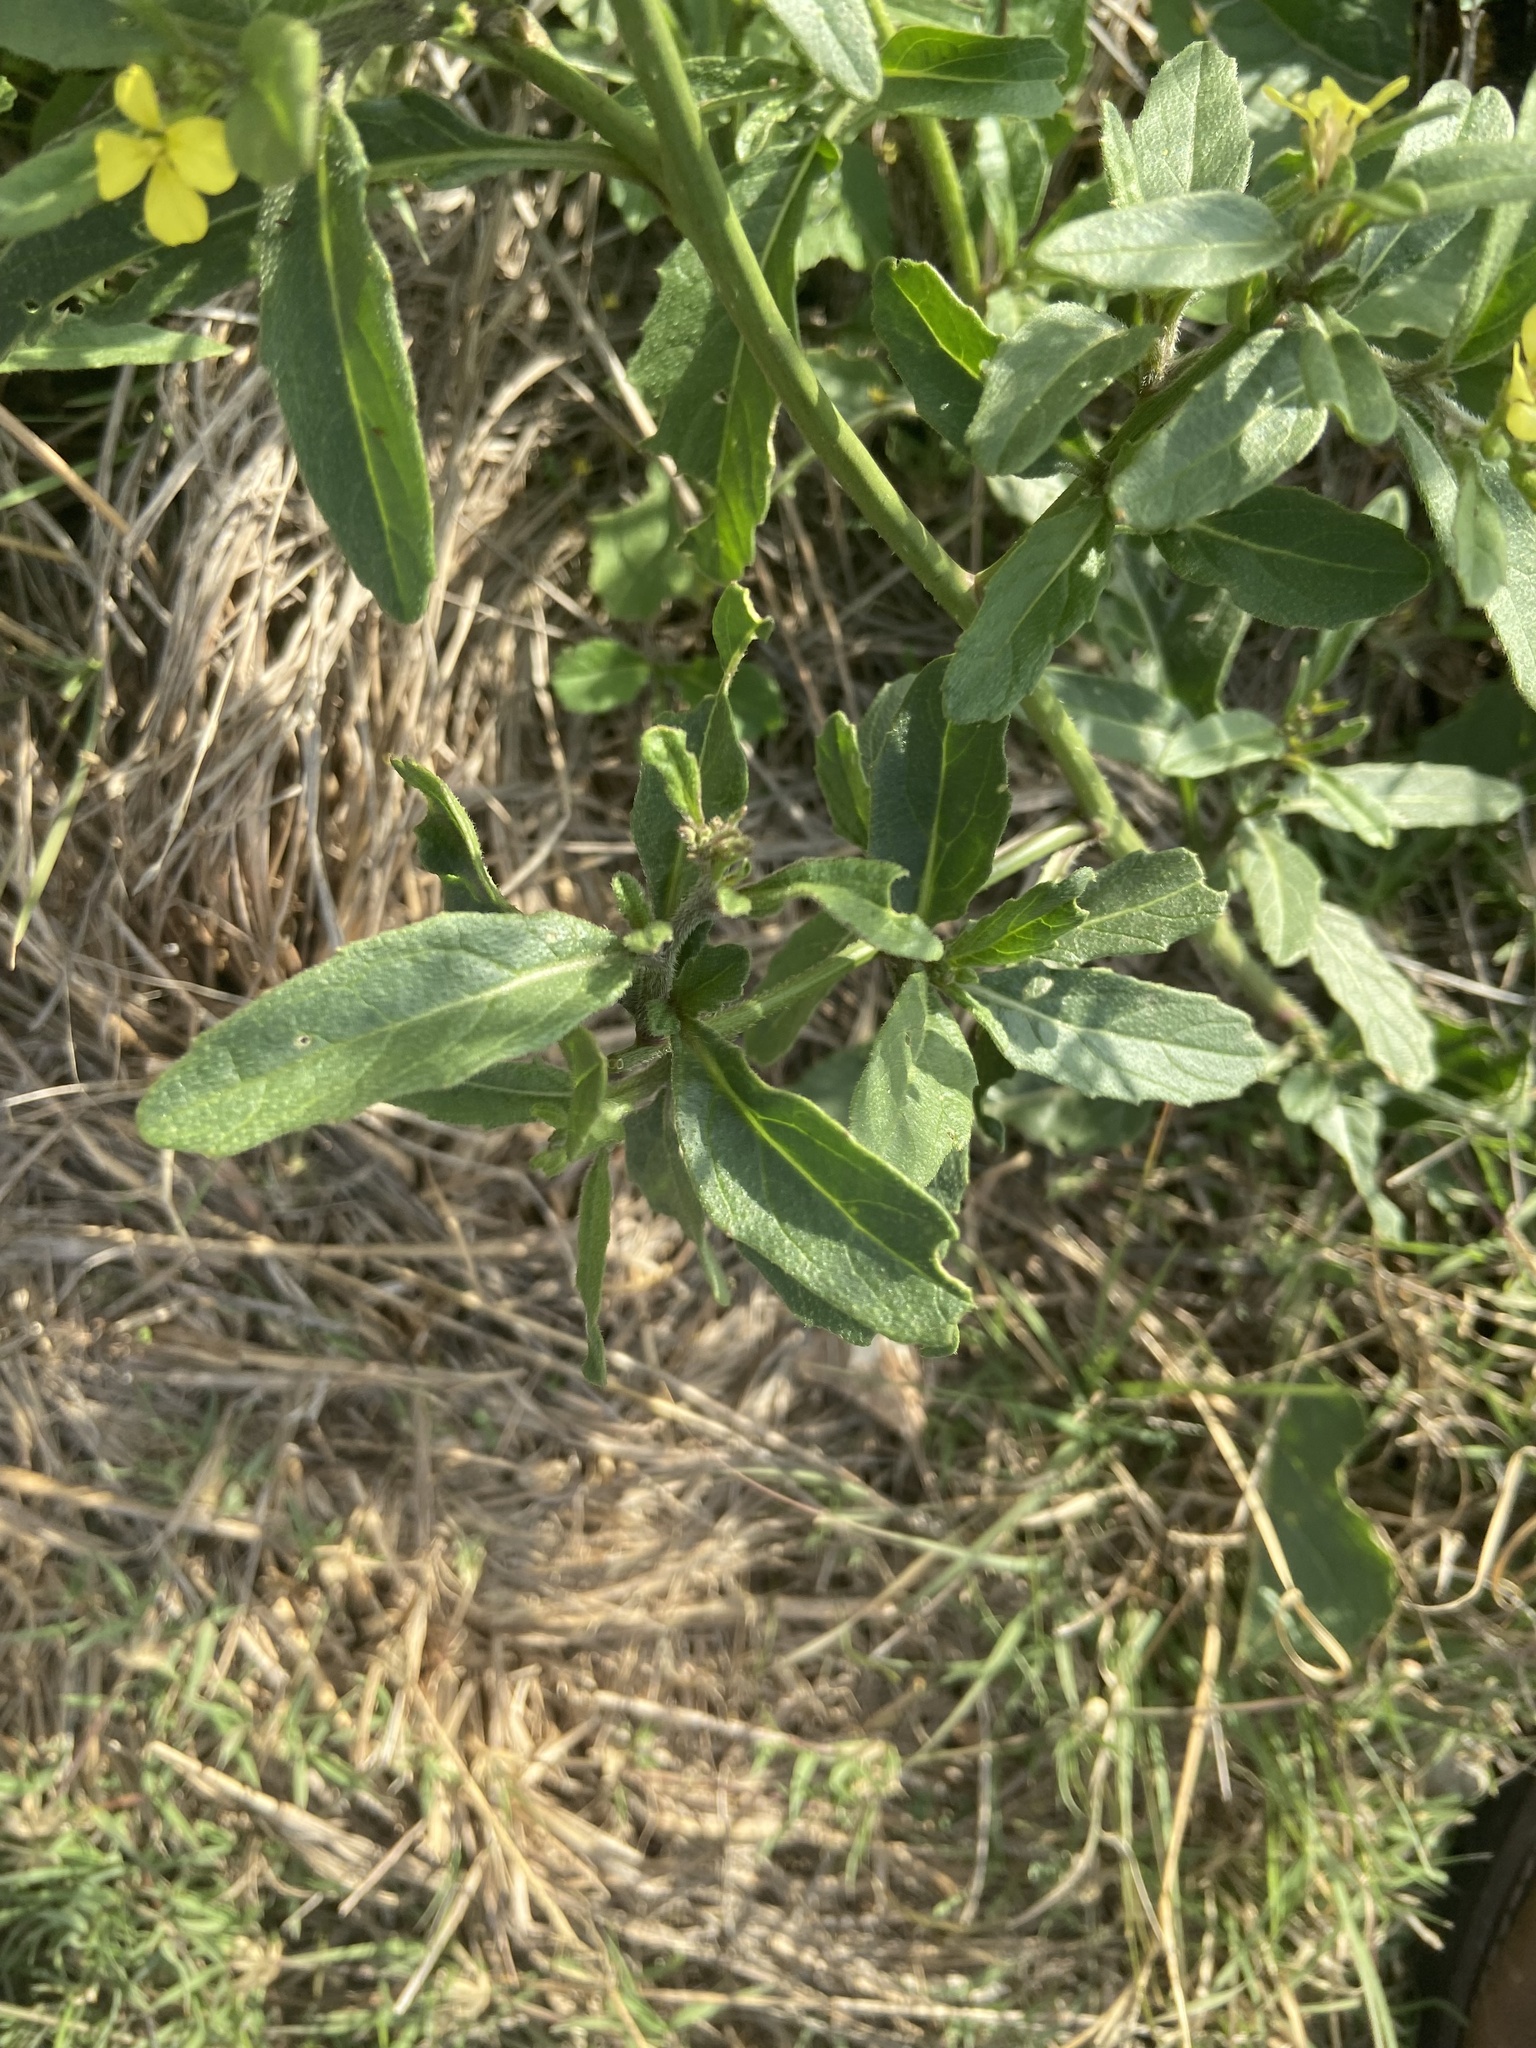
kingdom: Plantae
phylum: Tracheophyta
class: Magnoliopsida
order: Brassicales
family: Brassicaceae
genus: Rapistrum
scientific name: Rapistrum rugosum
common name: Annual bastardcabbage
